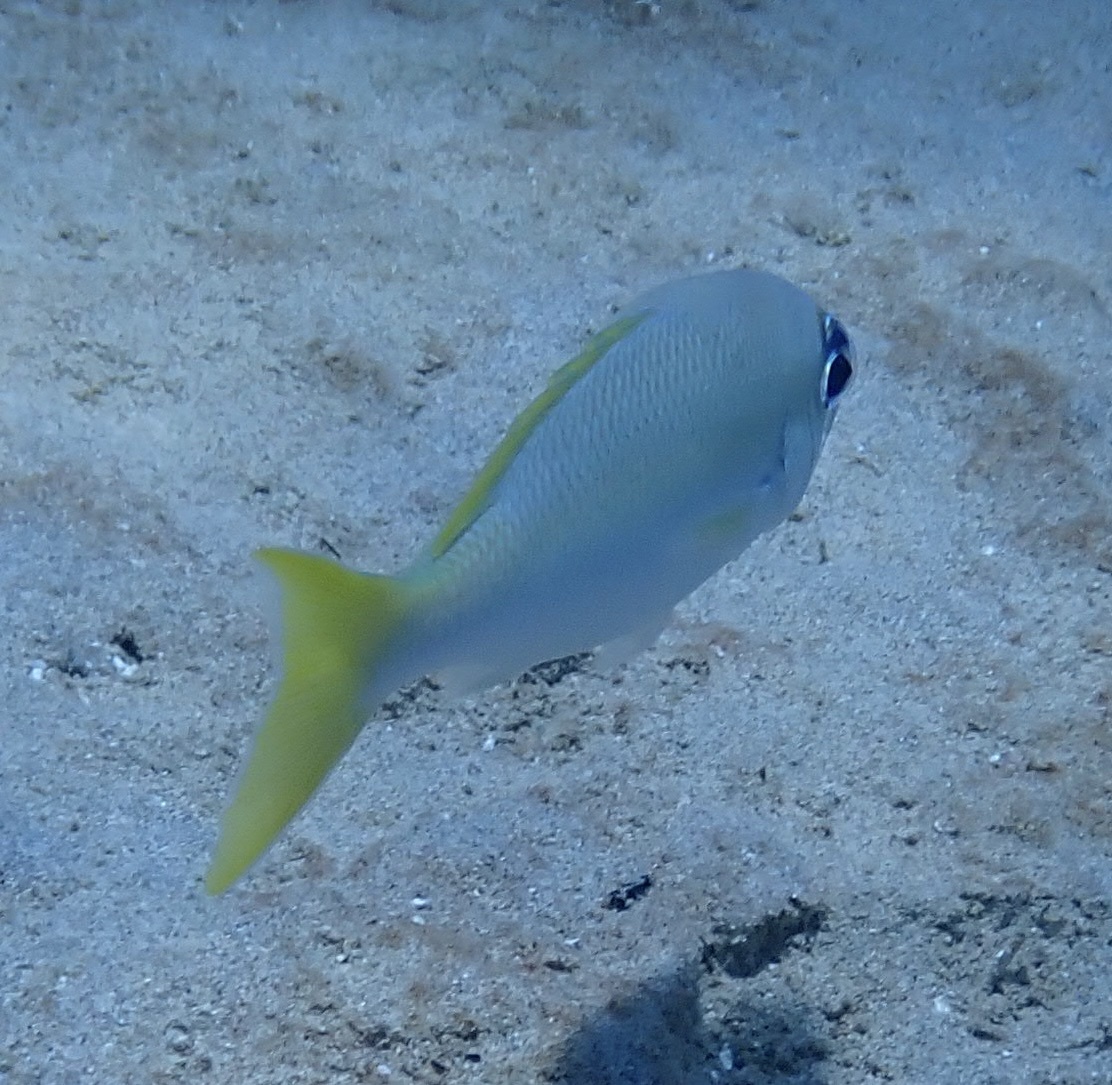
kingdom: Animalia
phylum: Chordata
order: Perciformes
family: Nemipteridae
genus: Scolopsis
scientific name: Scolopsis affinis
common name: Peters' monocle bream
